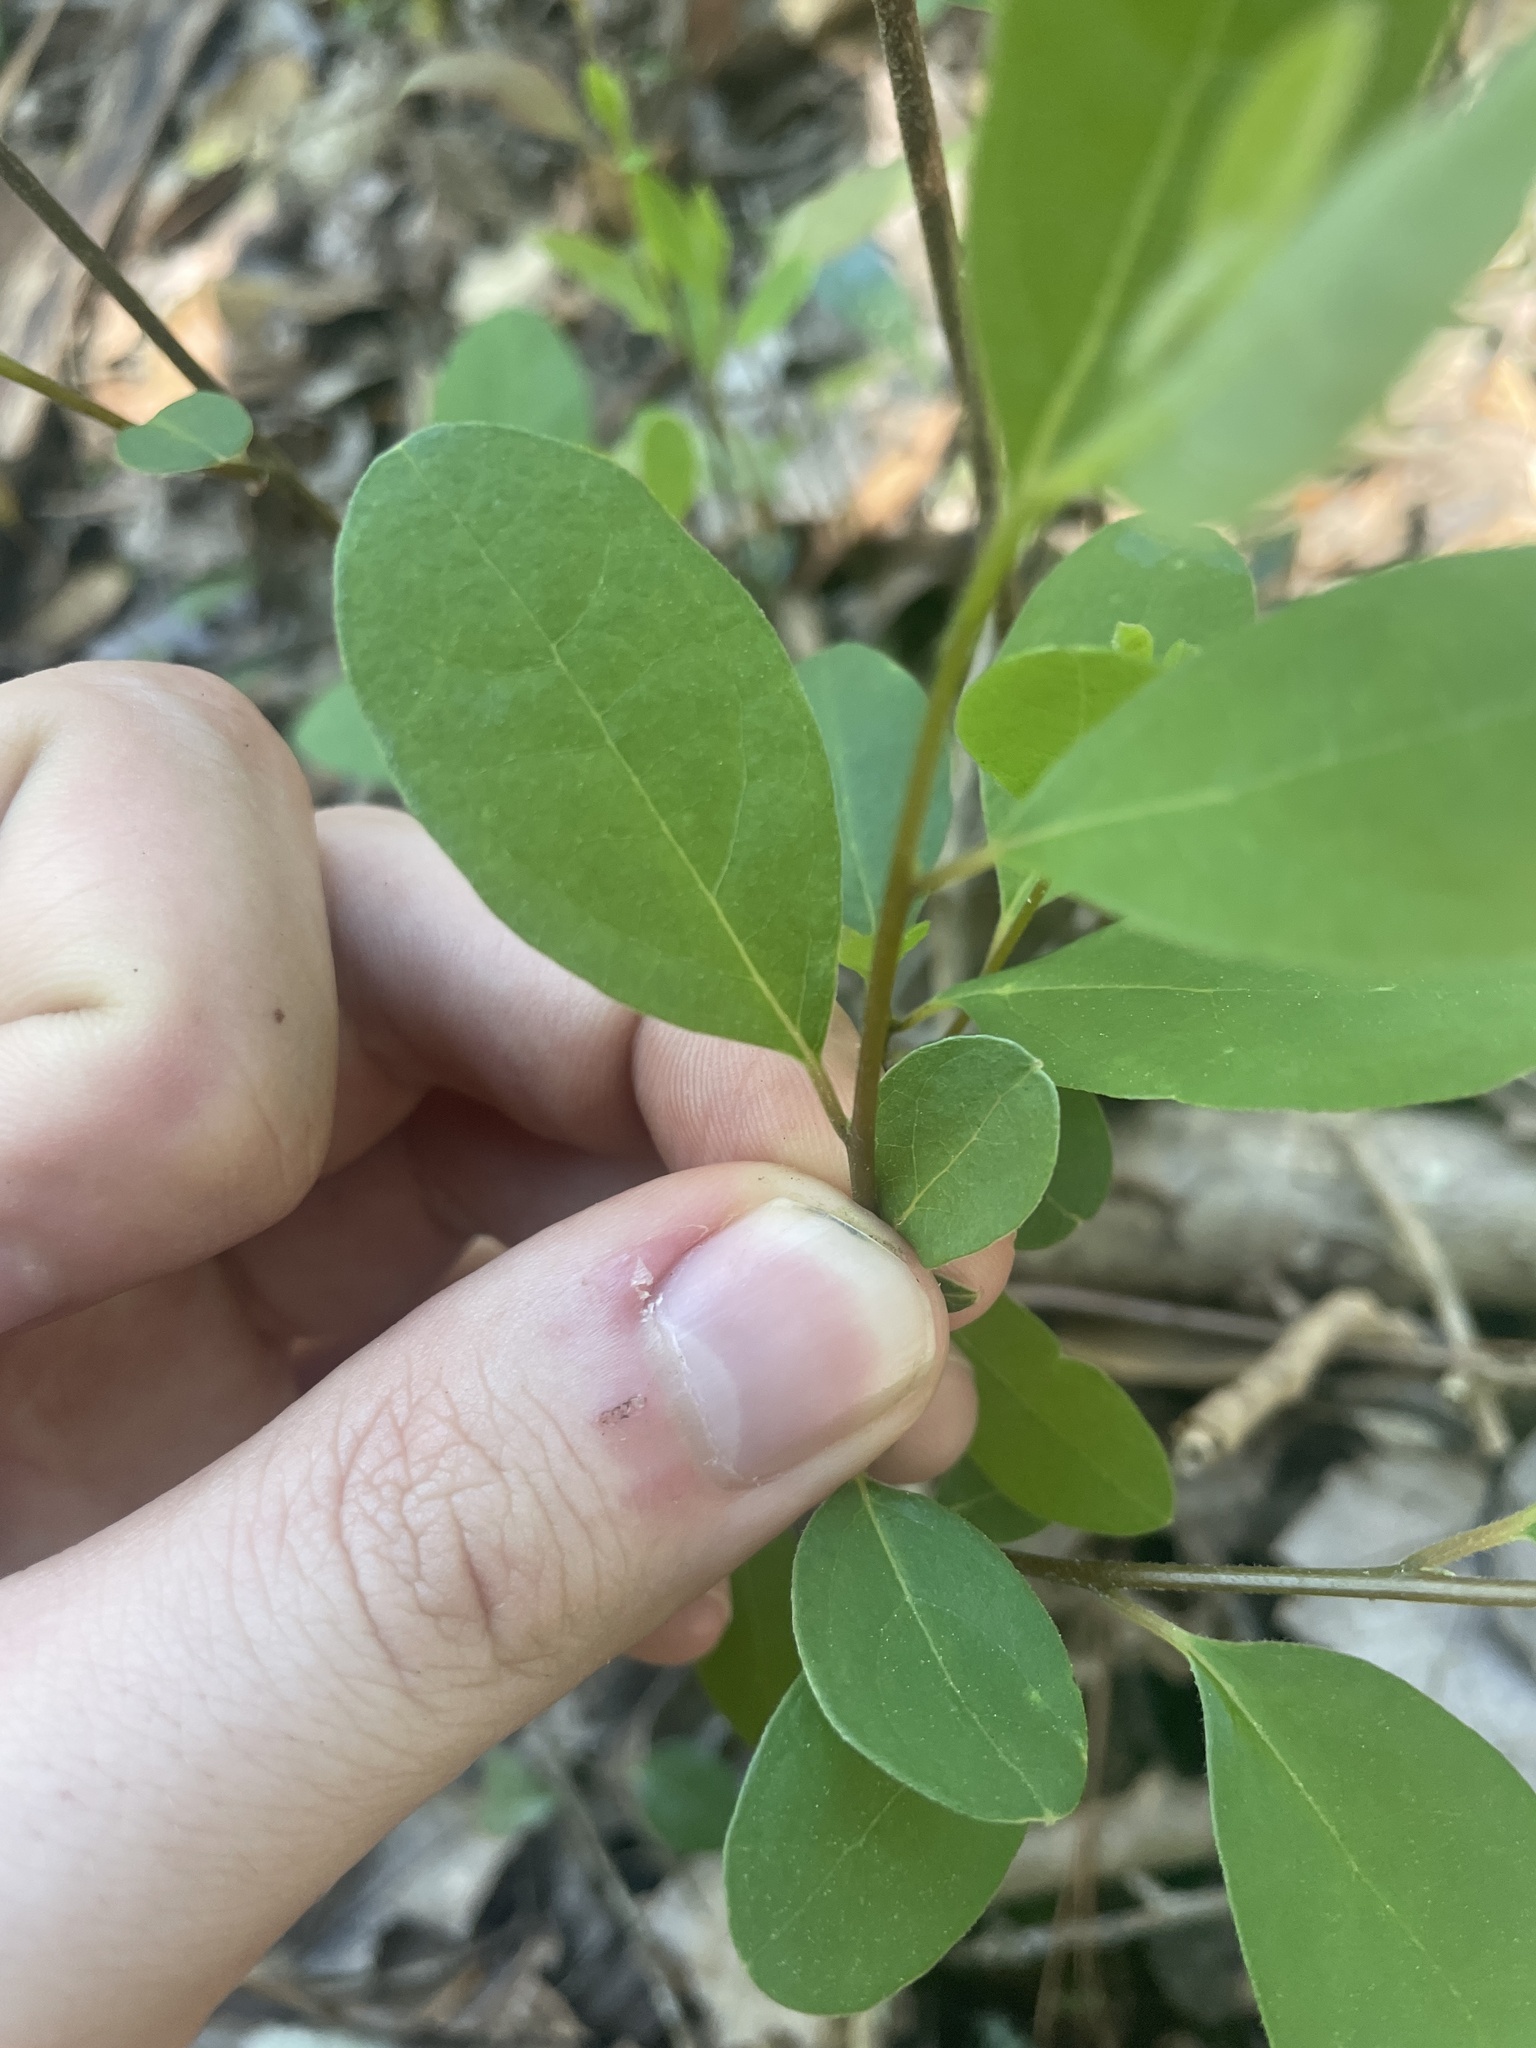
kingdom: Plantae
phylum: Tracheophyta
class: Magnoliopsida
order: Laurales
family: Lauraceae
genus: Lindera
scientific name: Lindera subcoriacea
